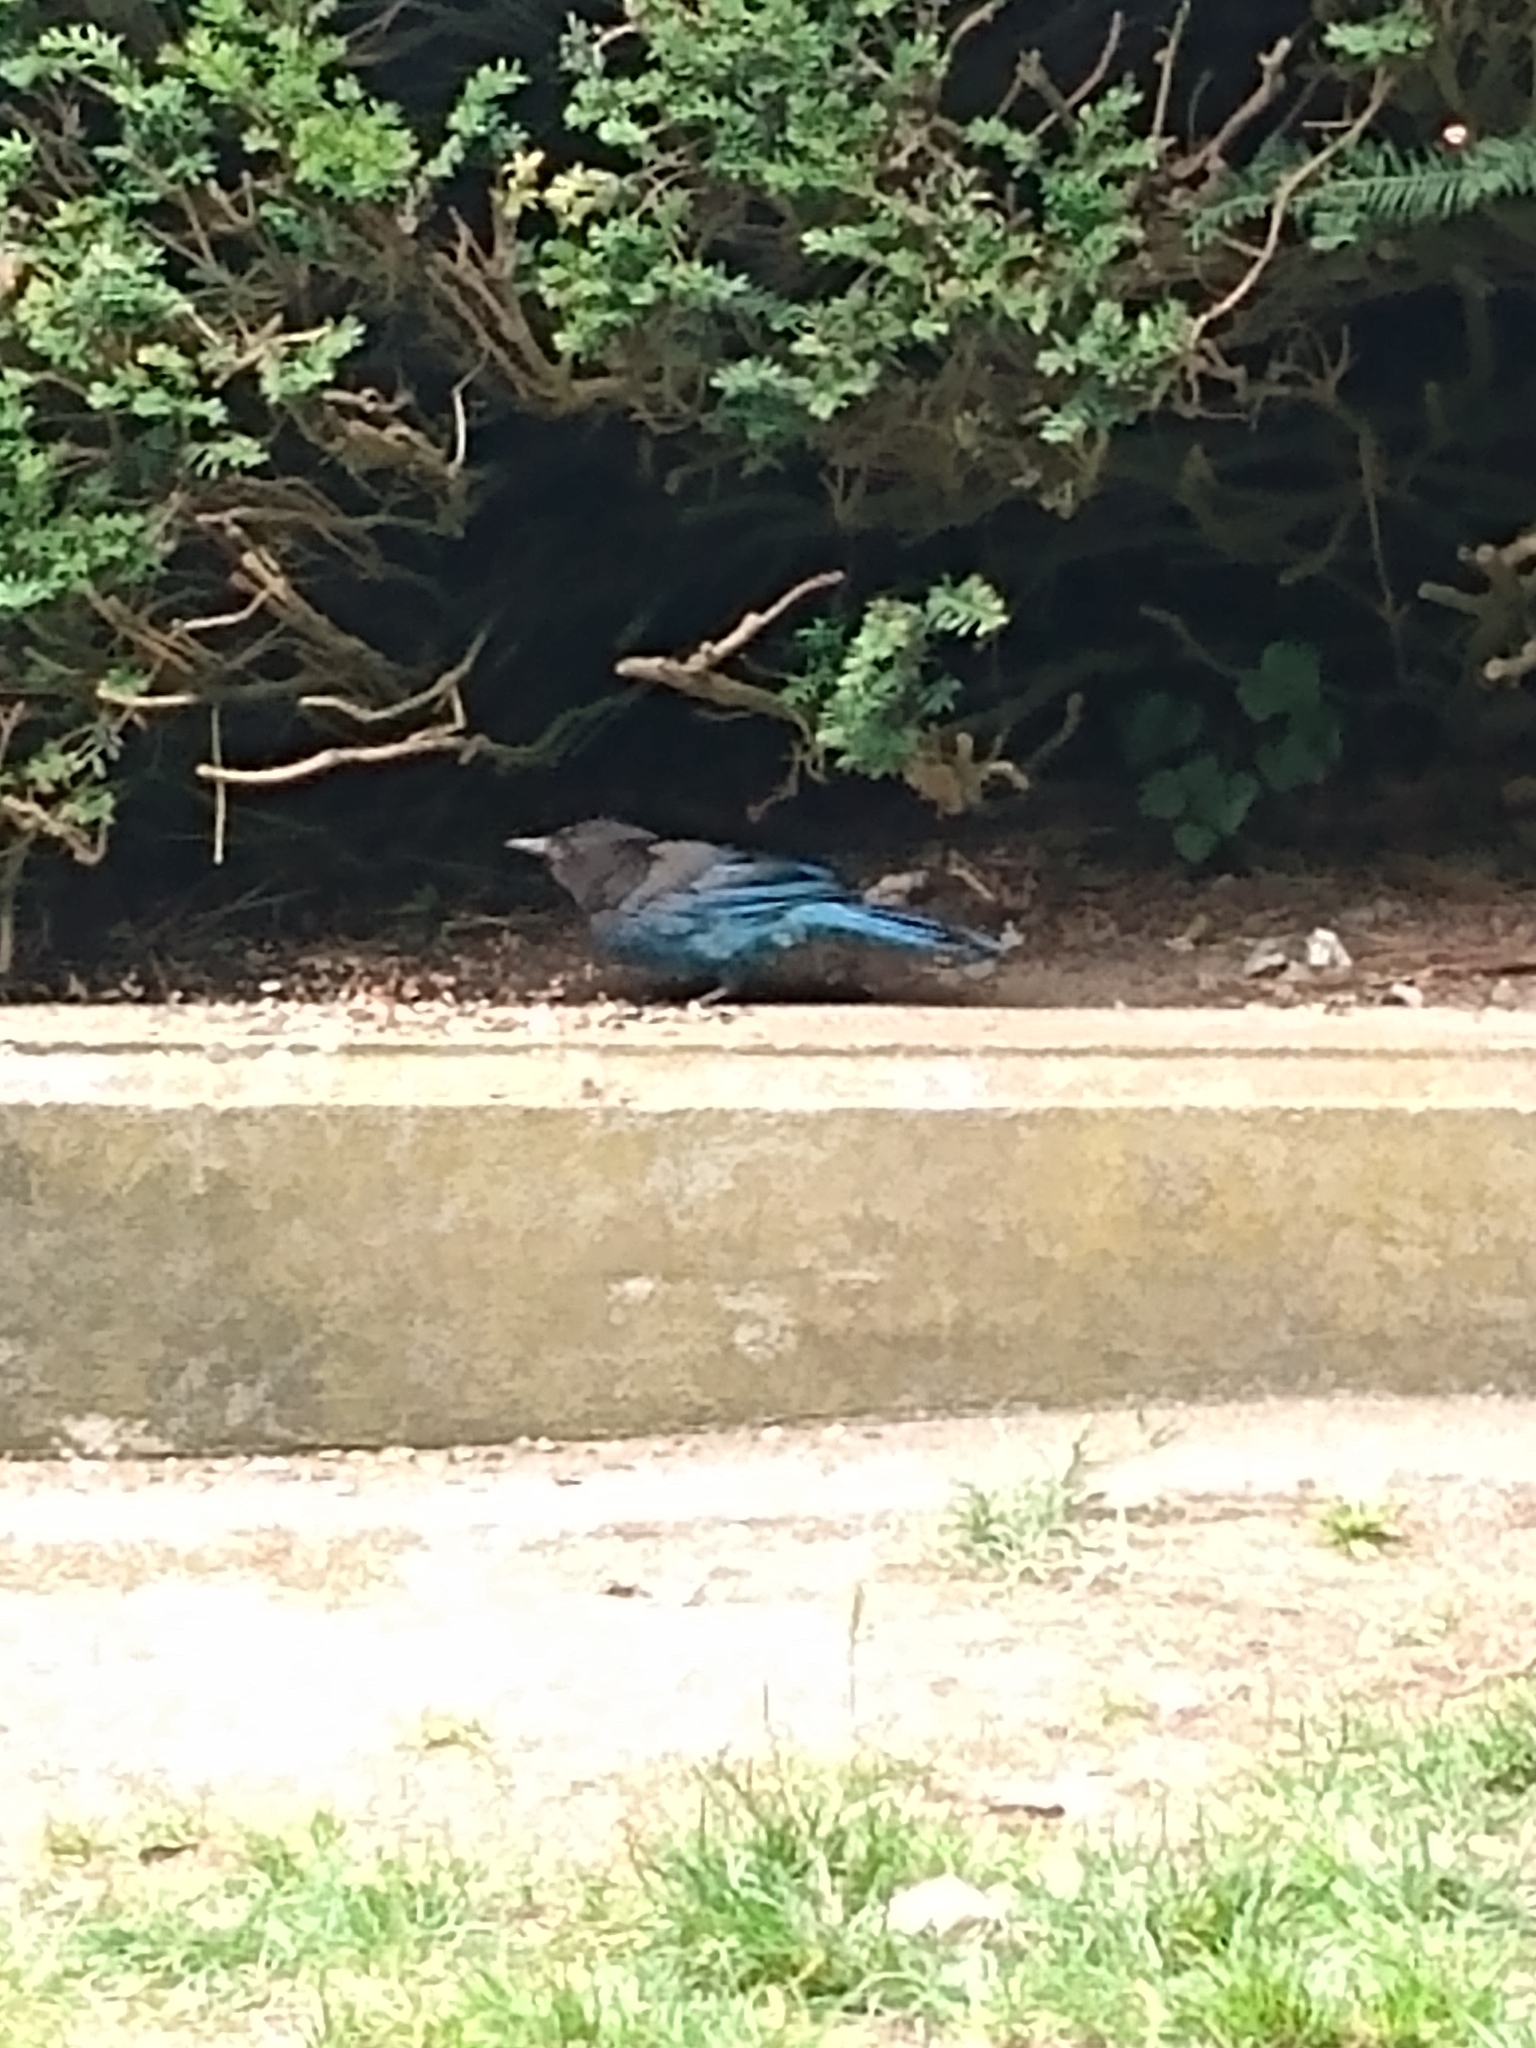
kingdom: Animalia
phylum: Chordata
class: Aves
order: Passeriformes
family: Corvidae
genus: Cyanocitta
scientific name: Cyanocitta stelleri
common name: Steller's jay
